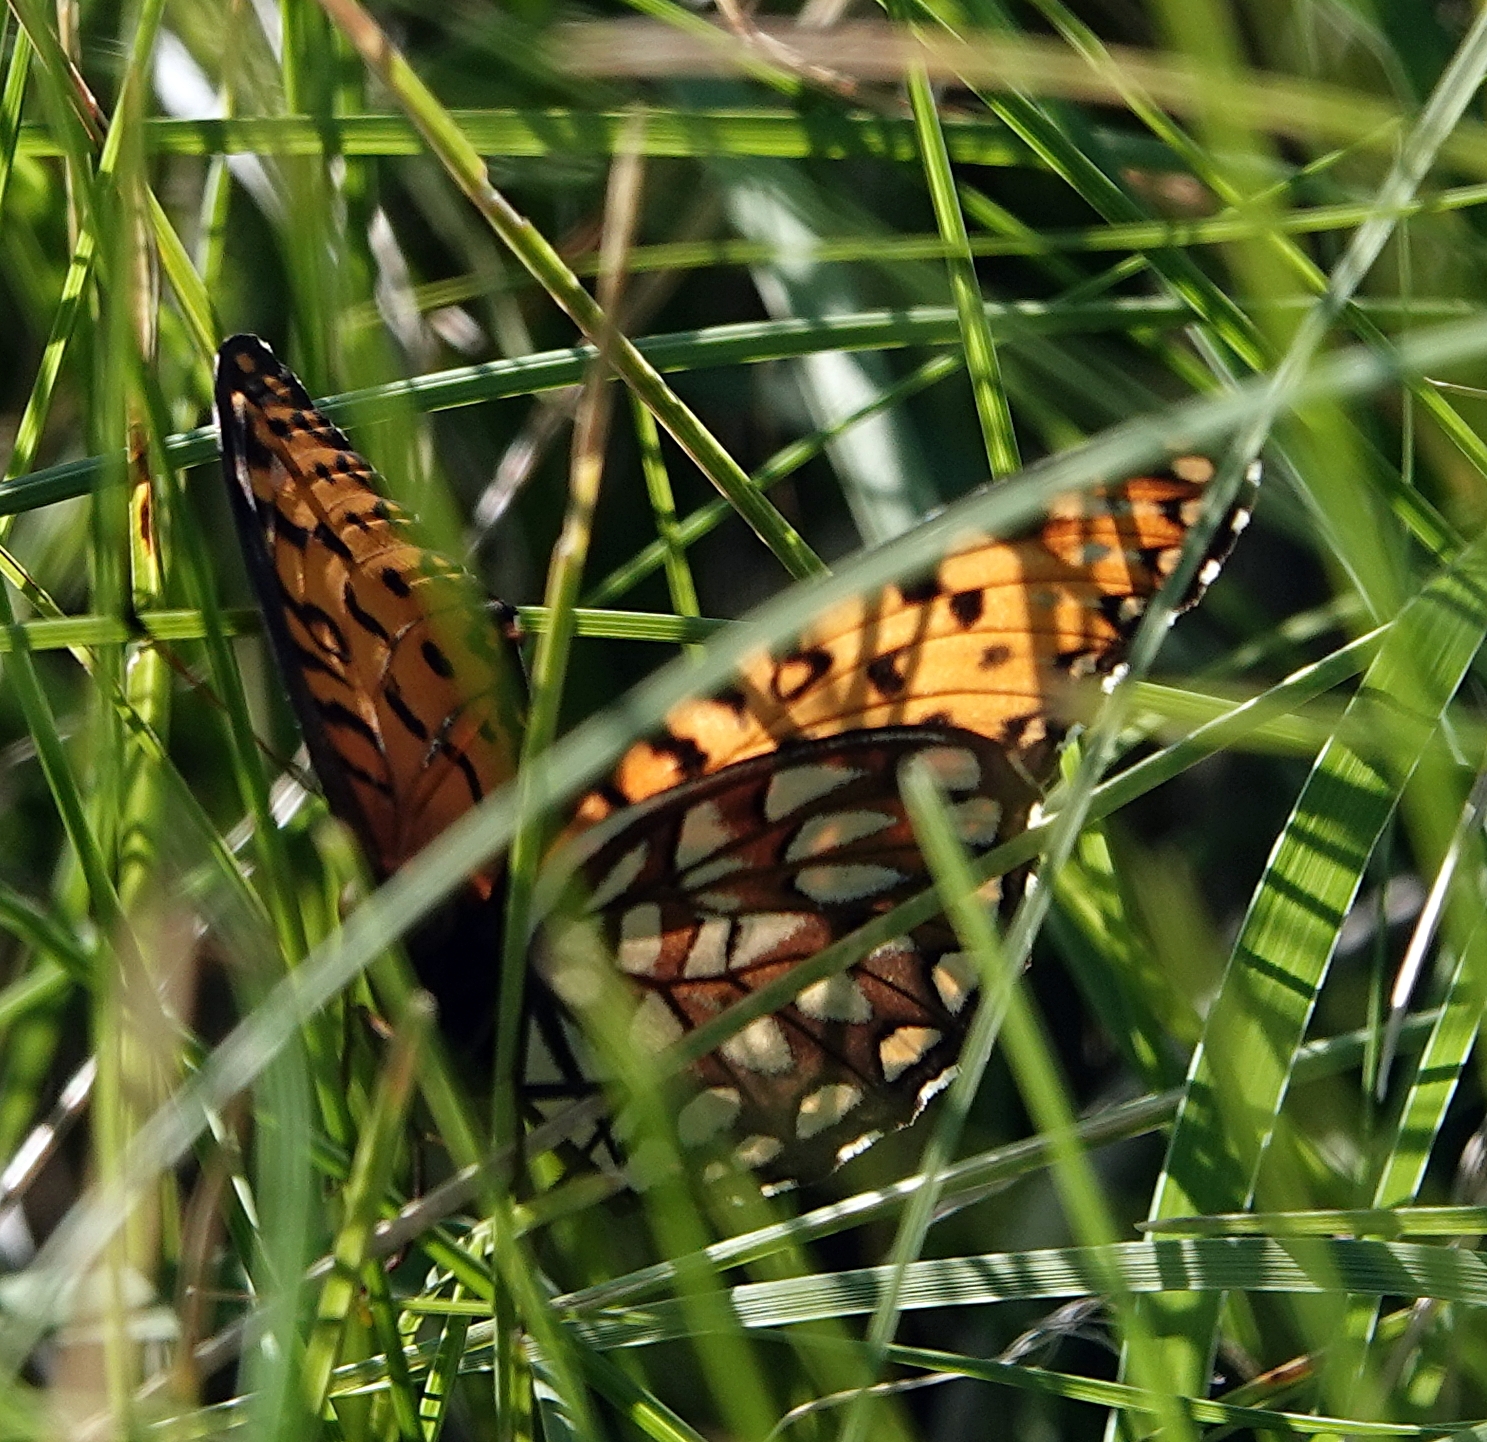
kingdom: Animalia
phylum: Arthropoda
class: Insecta
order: Lepidoptera
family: Nymphalidae
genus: Speyeria
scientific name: Speyeria idalia
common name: Regal fritillary
